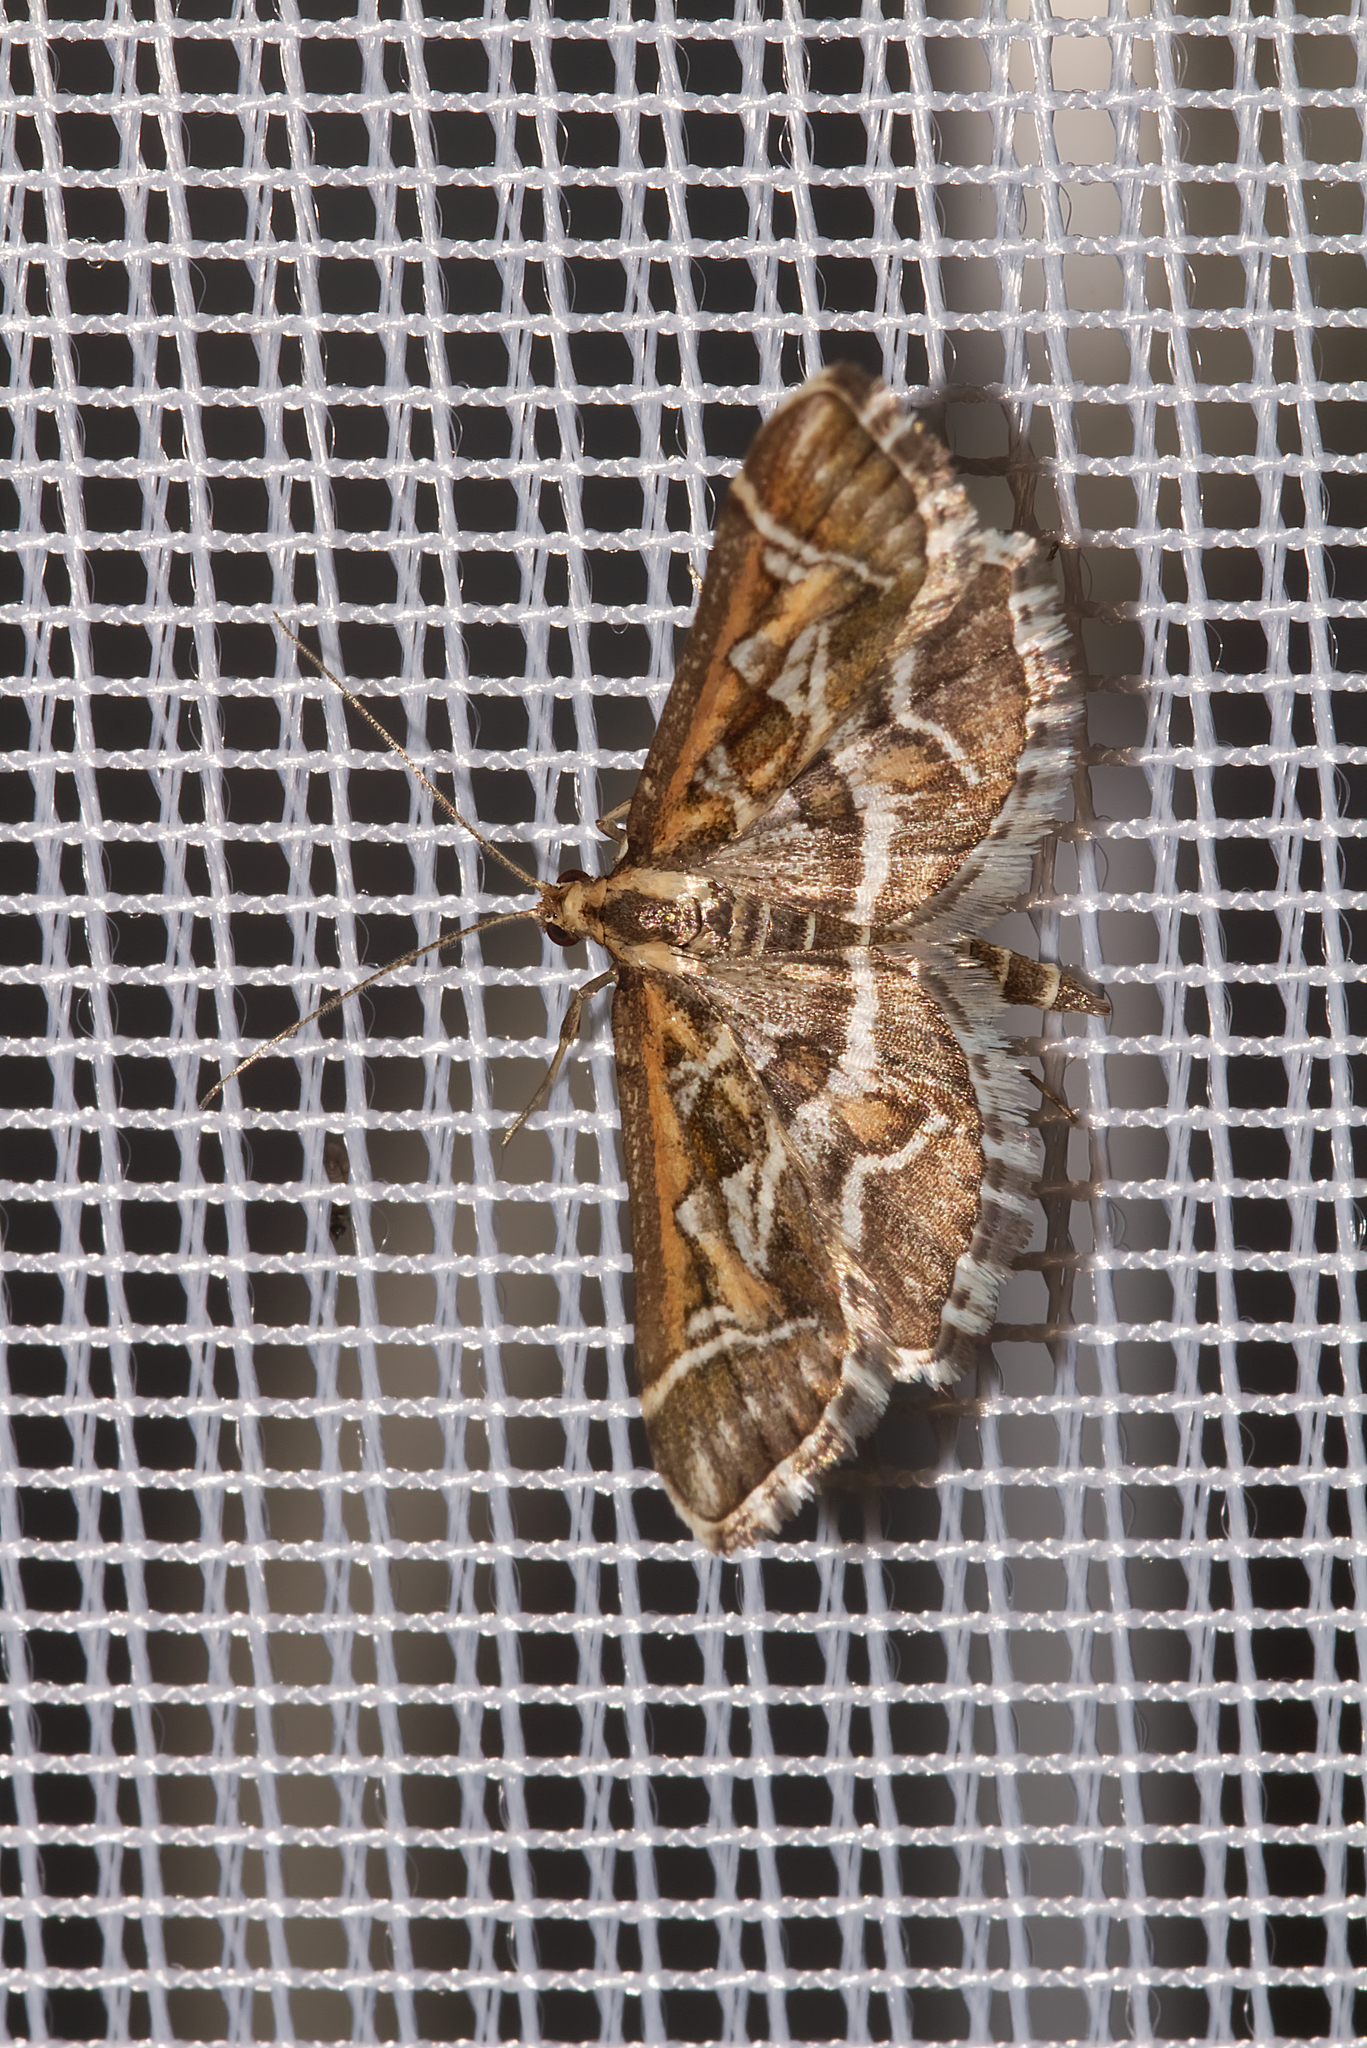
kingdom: Animalia
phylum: Arthropoda
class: Insecta
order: Lepidoptera
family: Crambidae
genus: Diasemia
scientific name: Diasemia reticularis
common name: Lettered china-mark
